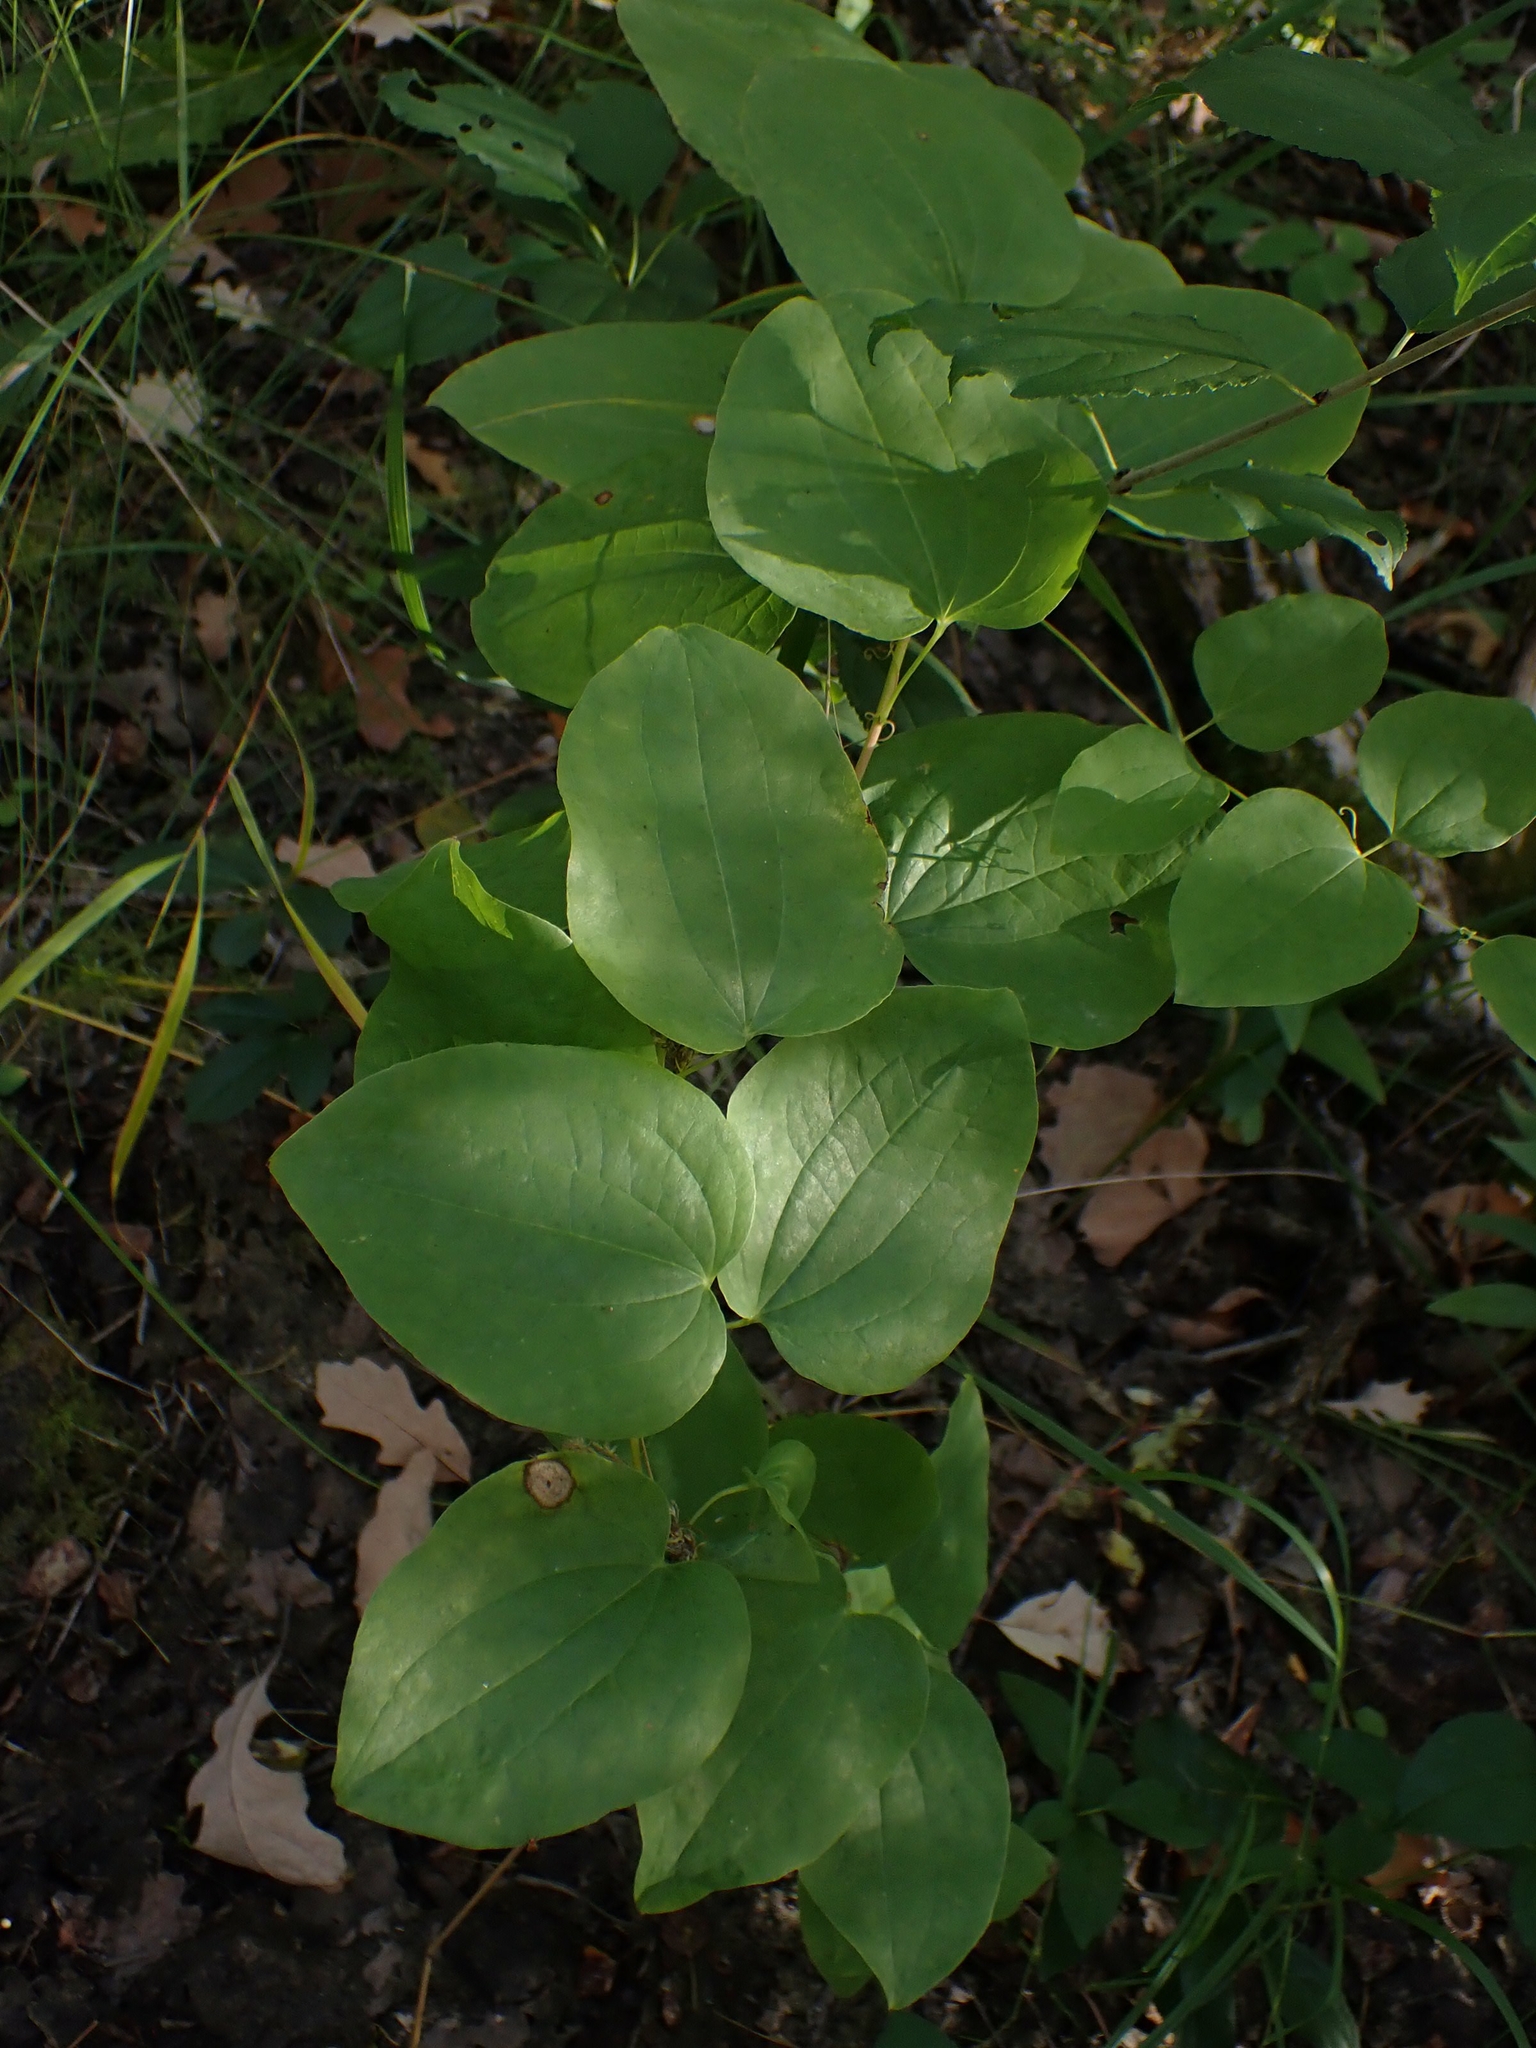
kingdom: Plantae
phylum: Tracheophyta
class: Liliopsida
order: Liliales
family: Smilacaceae
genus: Smilax
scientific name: Smilax lasioneura
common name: Blue ridge carrionflower
